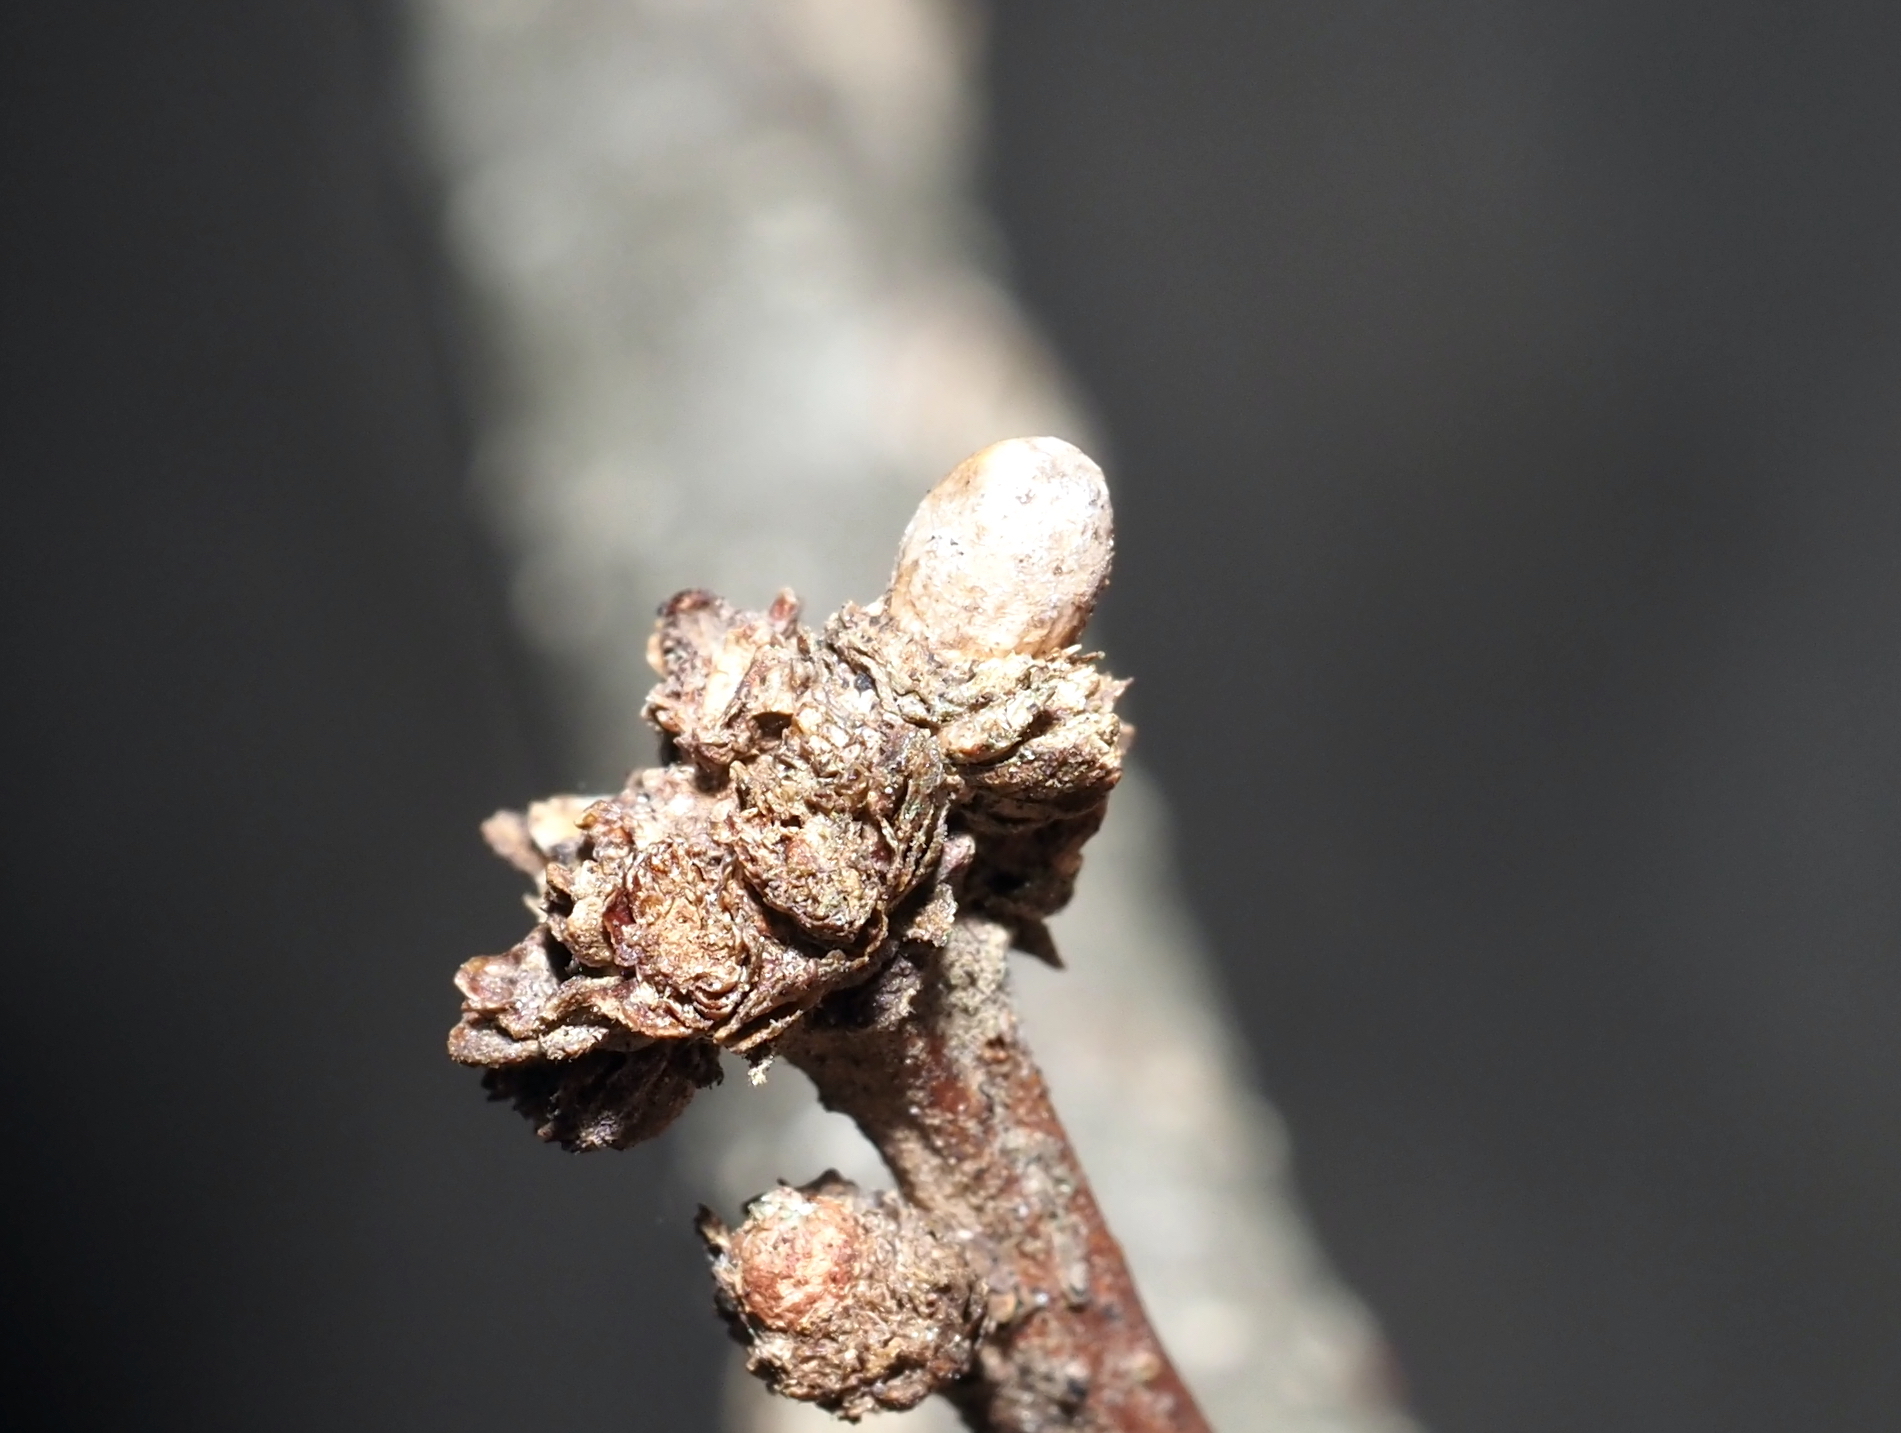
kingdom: Animalia
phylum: Arthropoda
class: Insecta
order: Hymenoptera
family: Cynipidae
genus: Andricus
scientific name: Andricus
